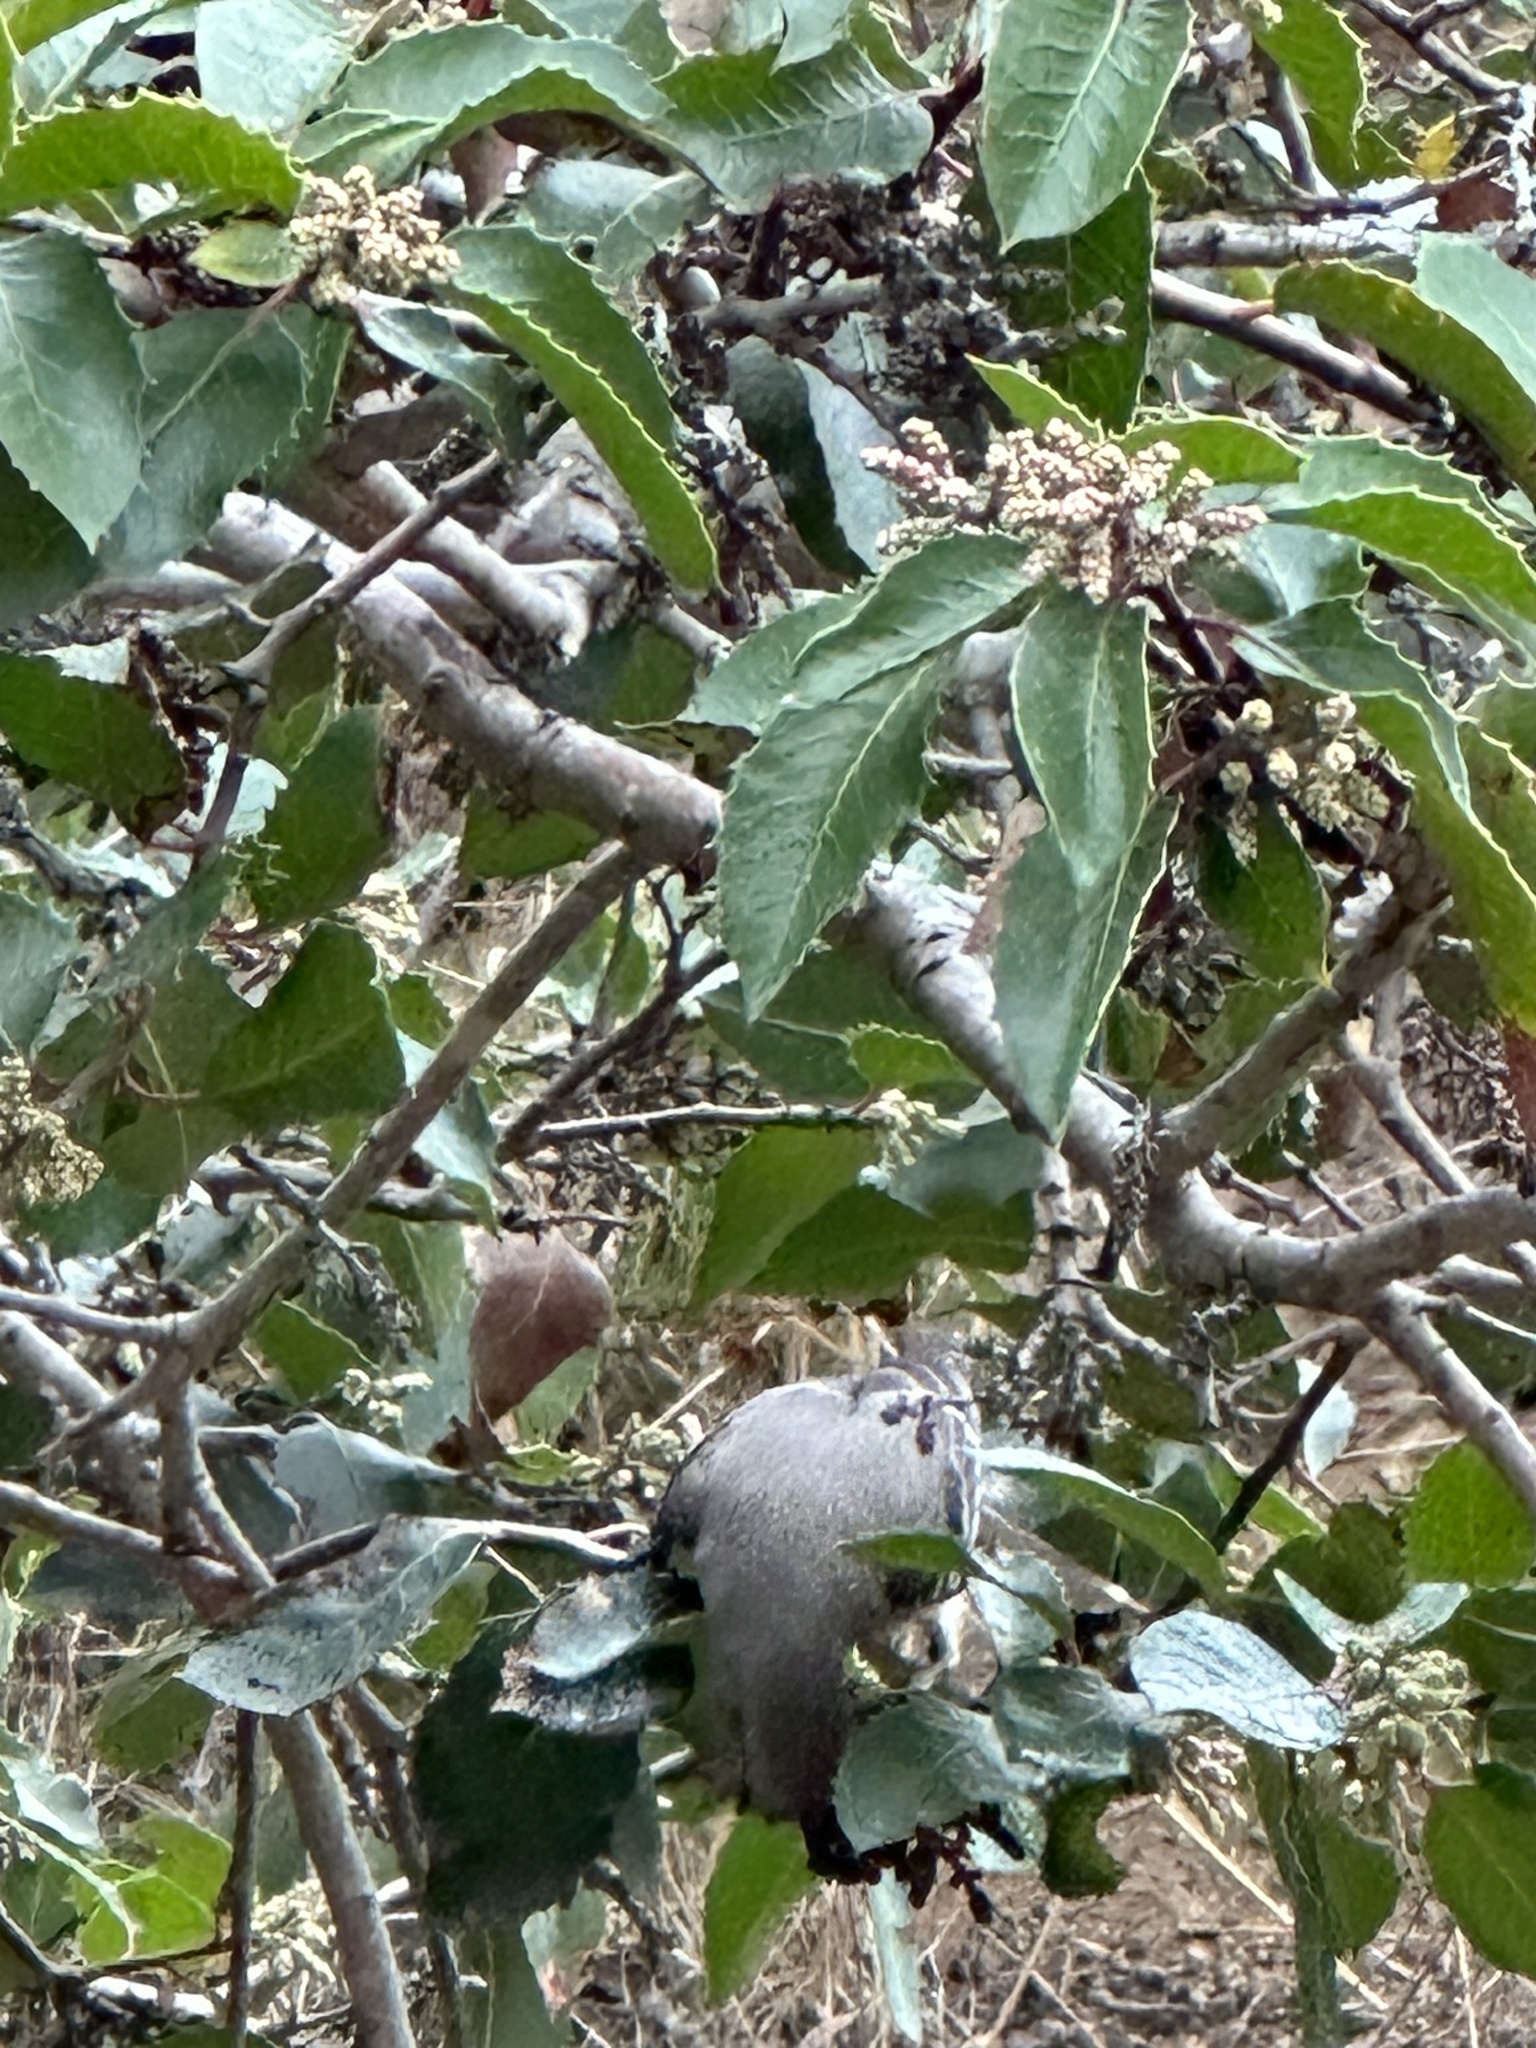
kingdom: Animalia
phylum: Chordata
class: Aves
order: Passeriformes
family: Mimidae
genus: Mimus
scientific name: Mimus polyglottos
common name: Northern mockingbird
